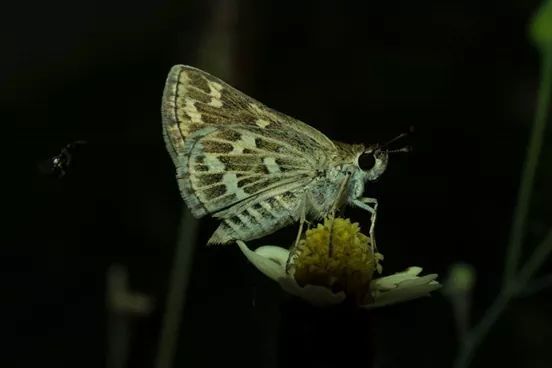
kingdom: Animalia
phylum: Arthropoda
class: Insecta
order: Lepidoptera
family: Hesperiidae
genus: Taractrocera
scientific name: Taractrocera maevius
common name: Common grass-dart
